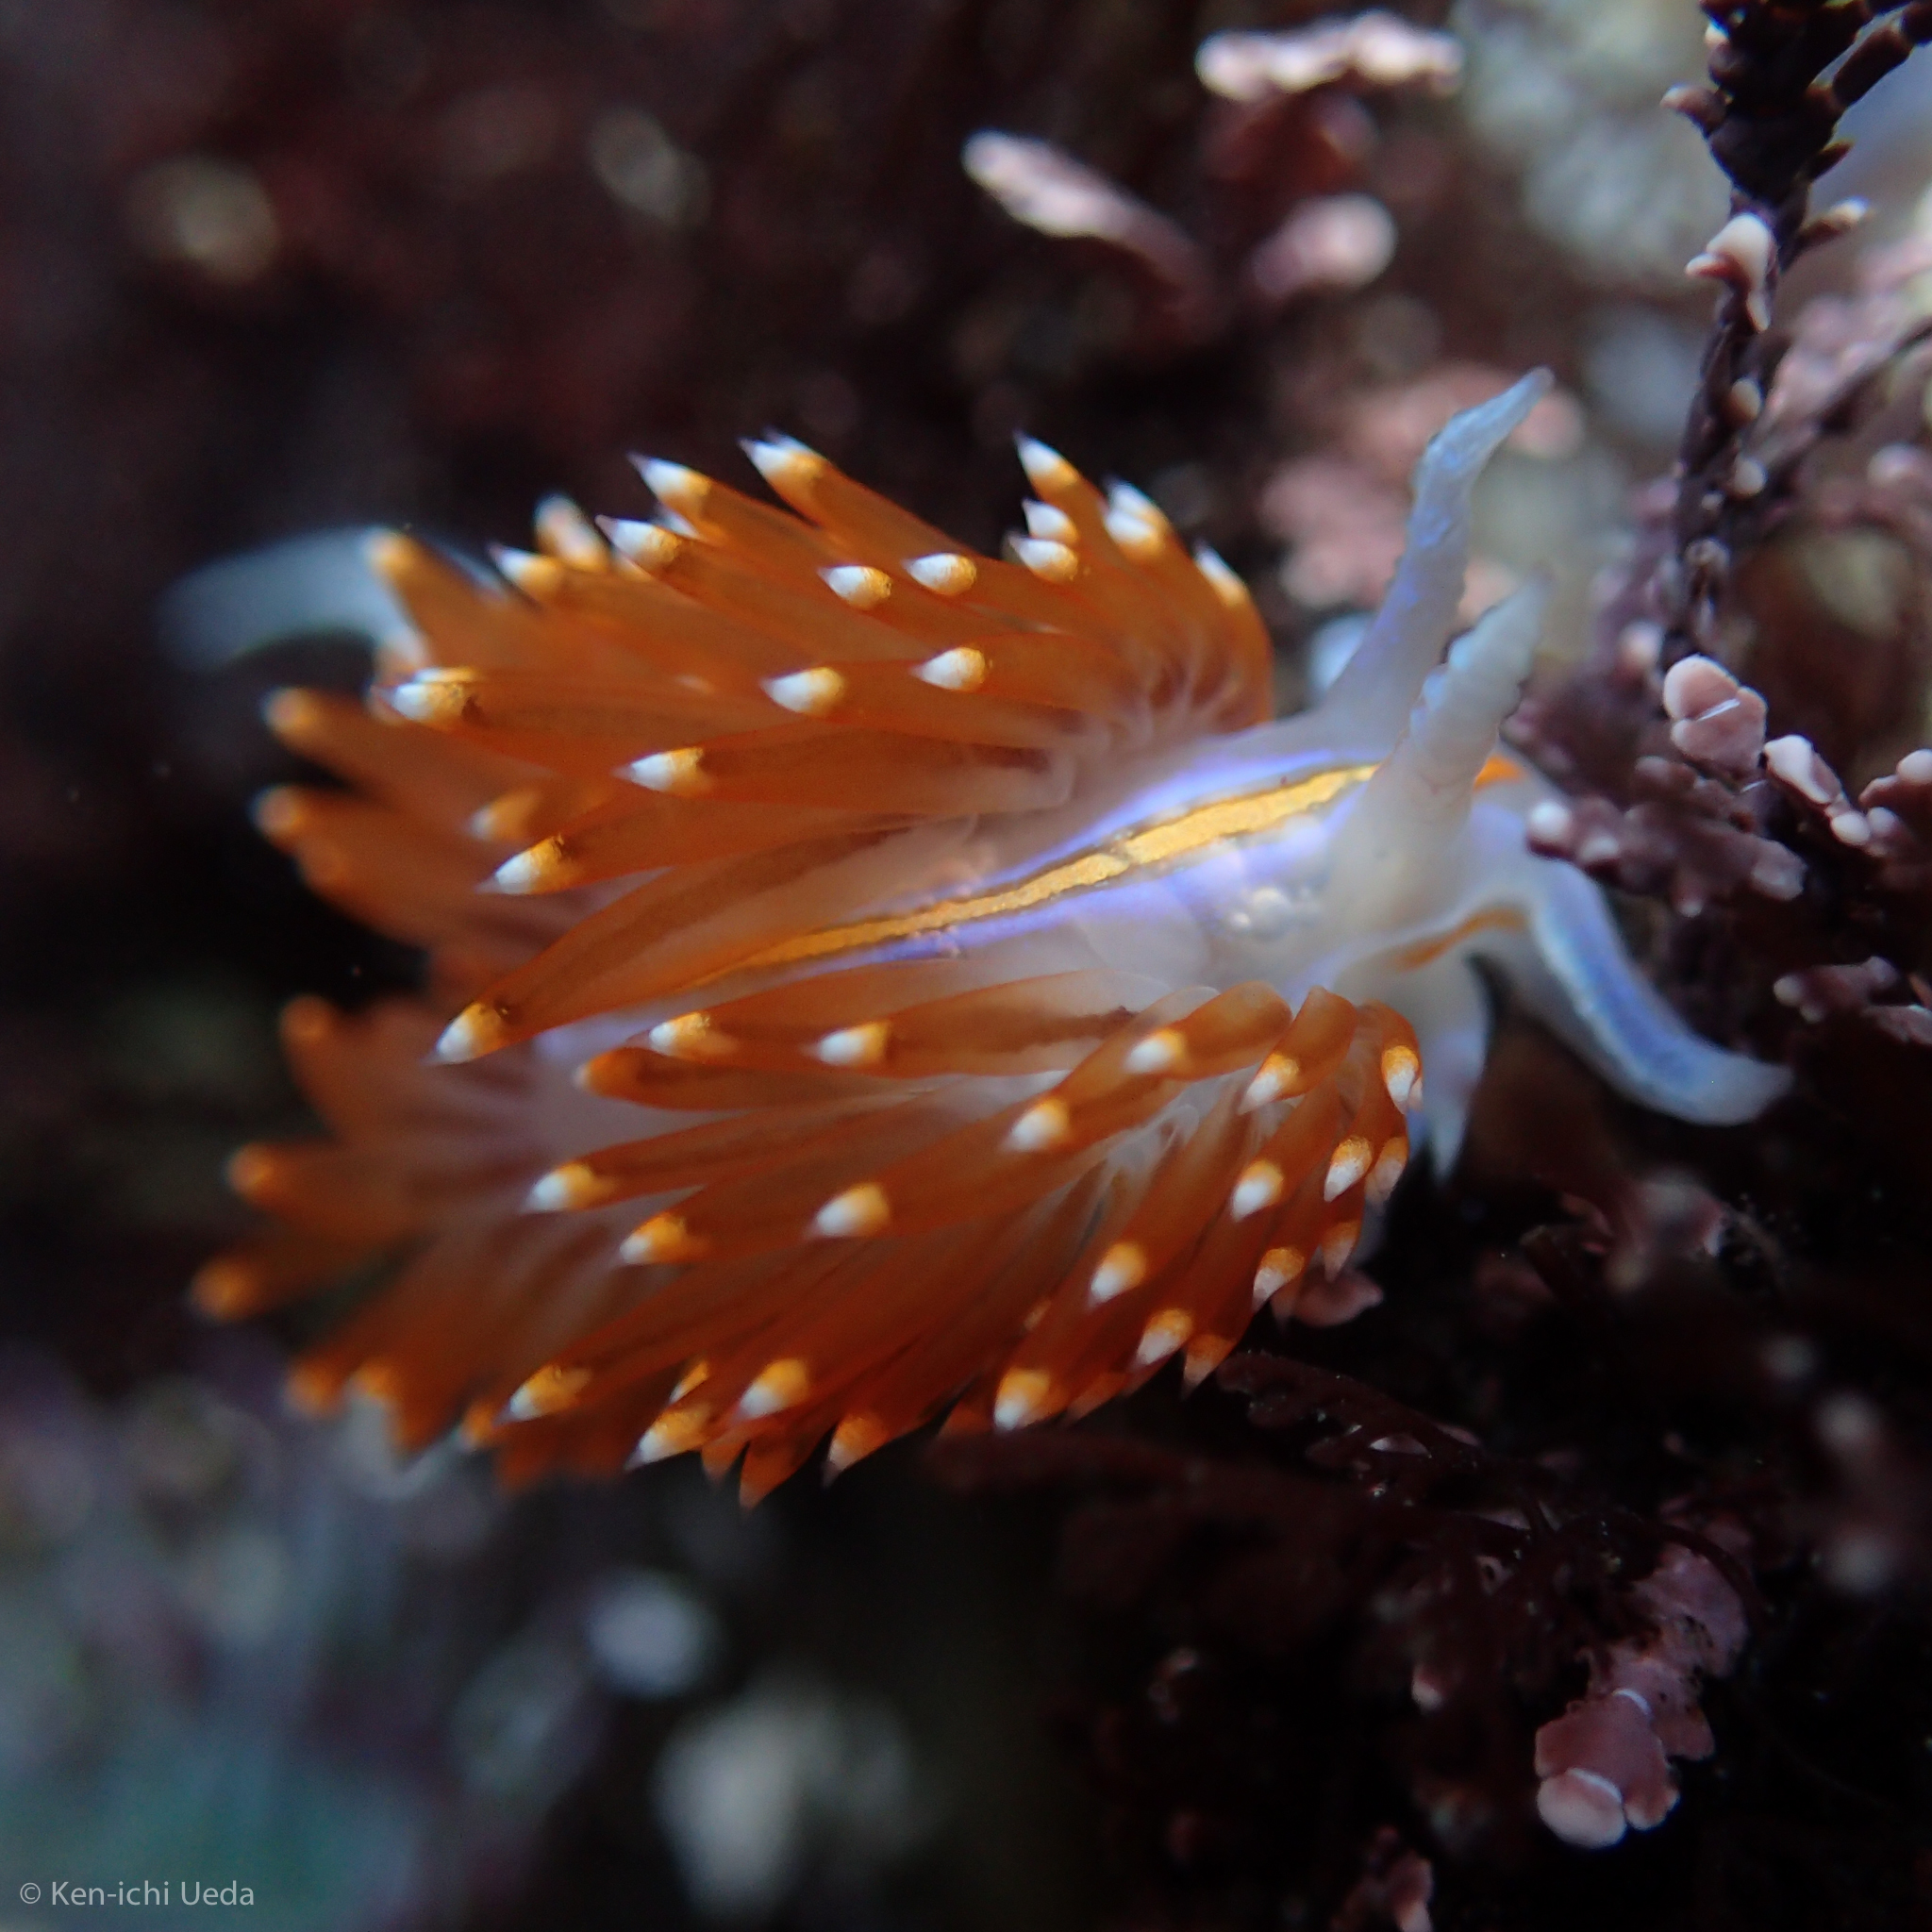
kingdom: Animalia
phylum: Mollusca
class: Gastropoda
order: Nudibranchia
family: Myrrhinidae
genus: Hermissenda
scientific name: Hermissenda opalescens
